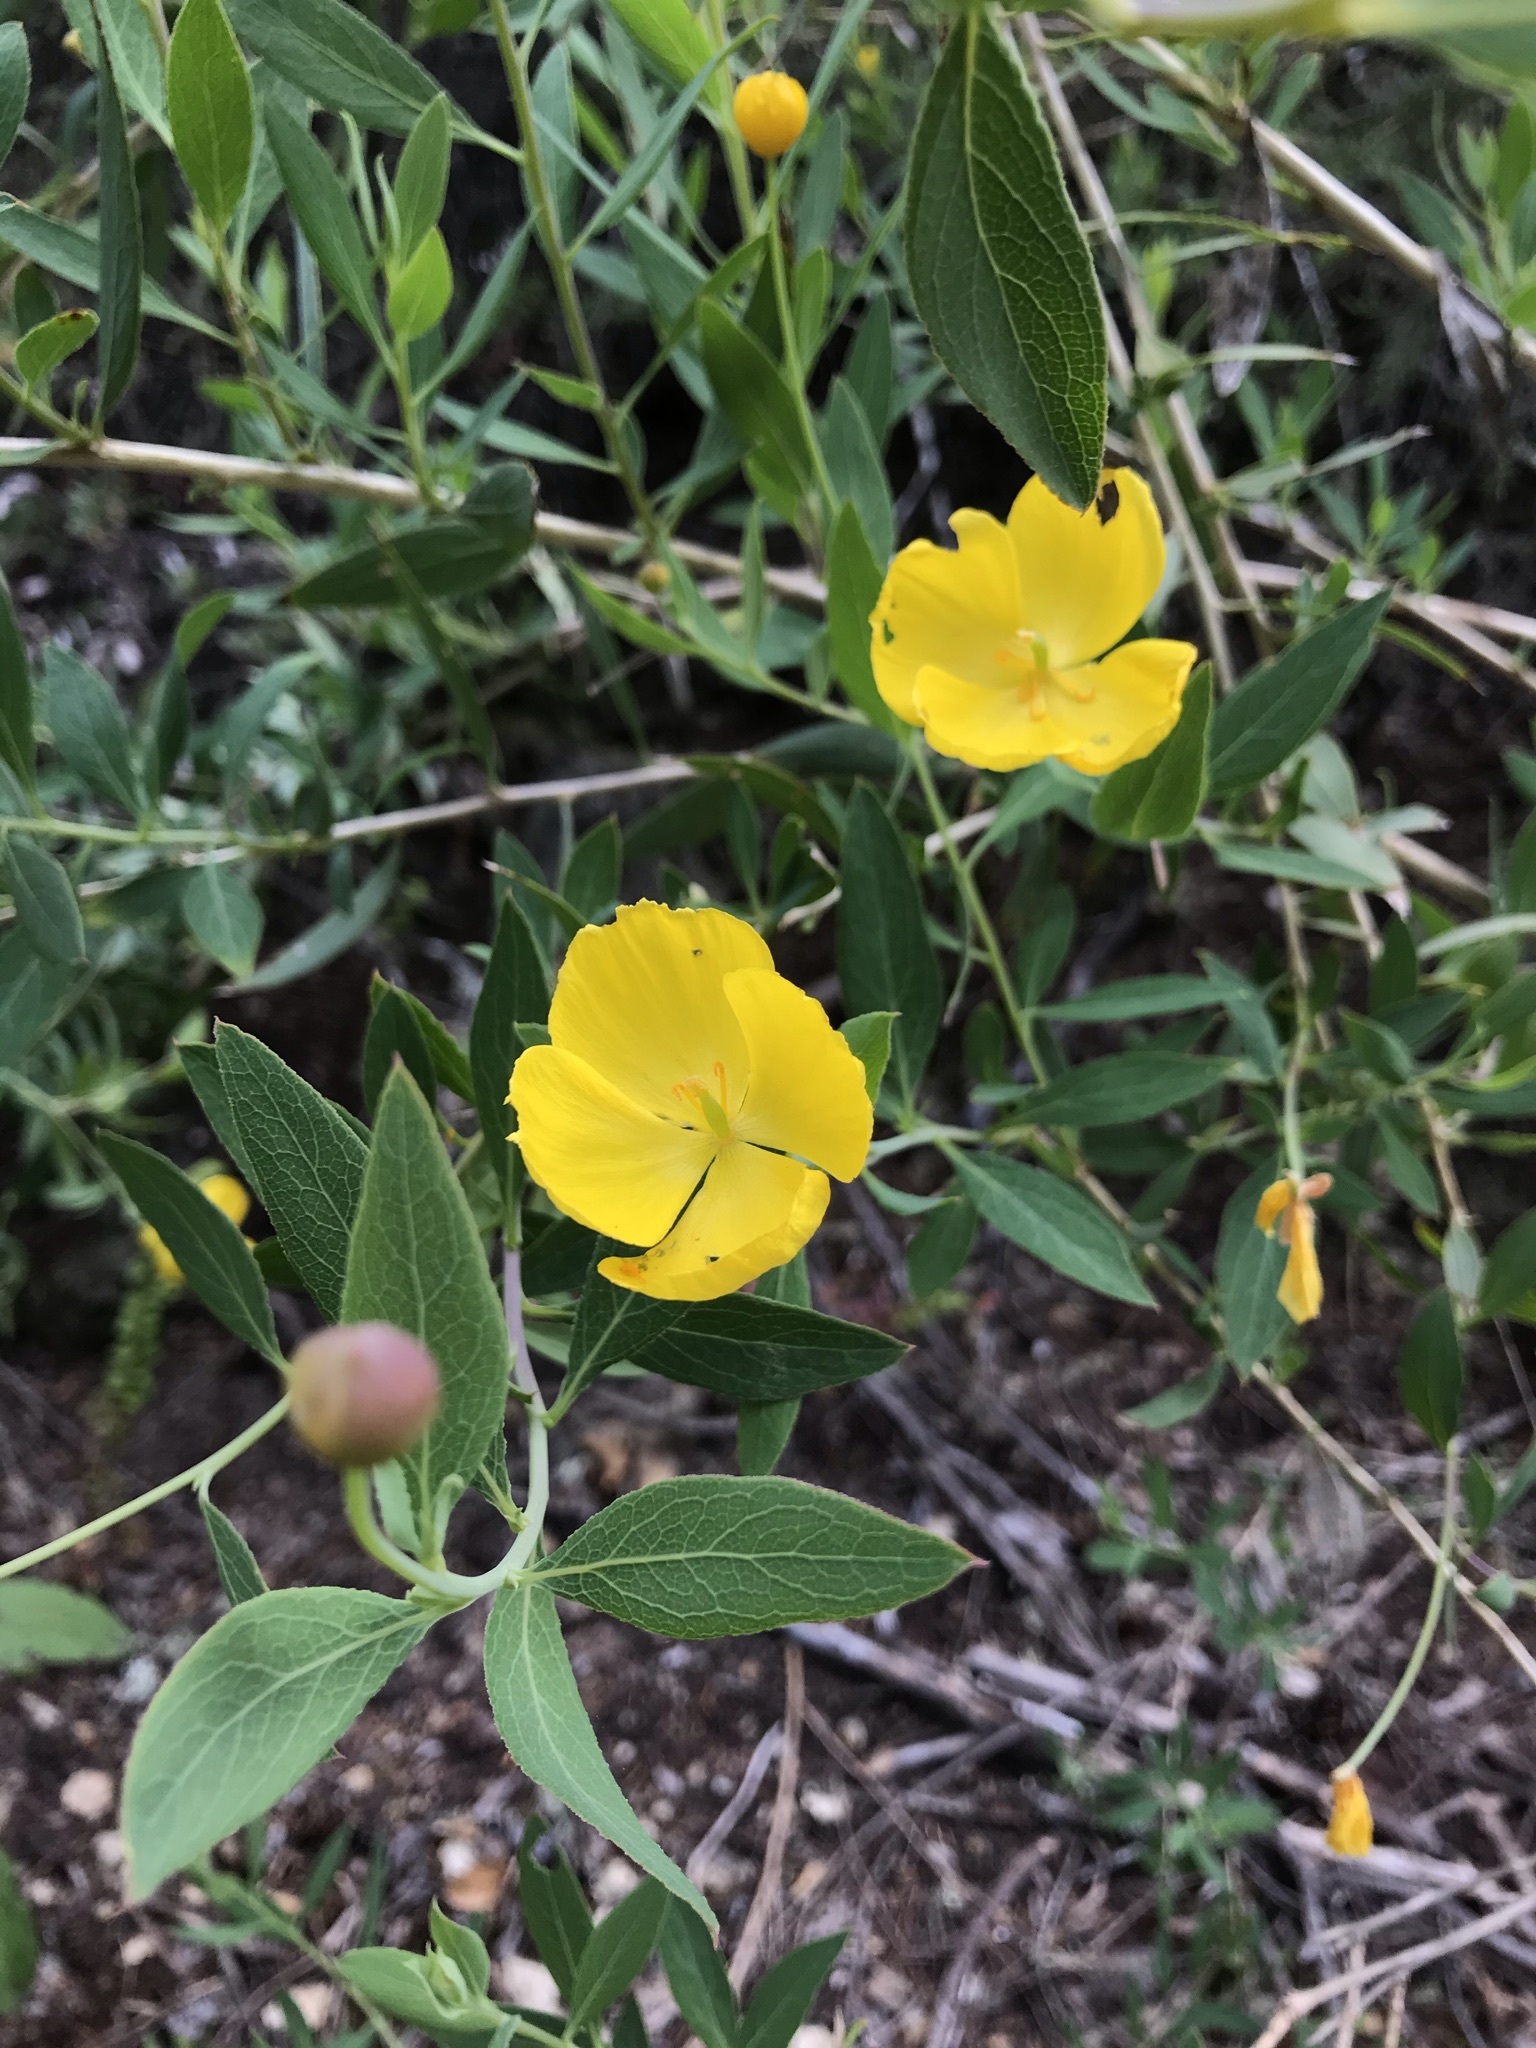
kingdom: Plantae
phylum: Tracheophyta
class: Magnoliopsida
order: Ranunculales
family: Papaveraceae
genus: Dendromecon
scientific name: Dendromecon rigida
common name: Tree poppy
